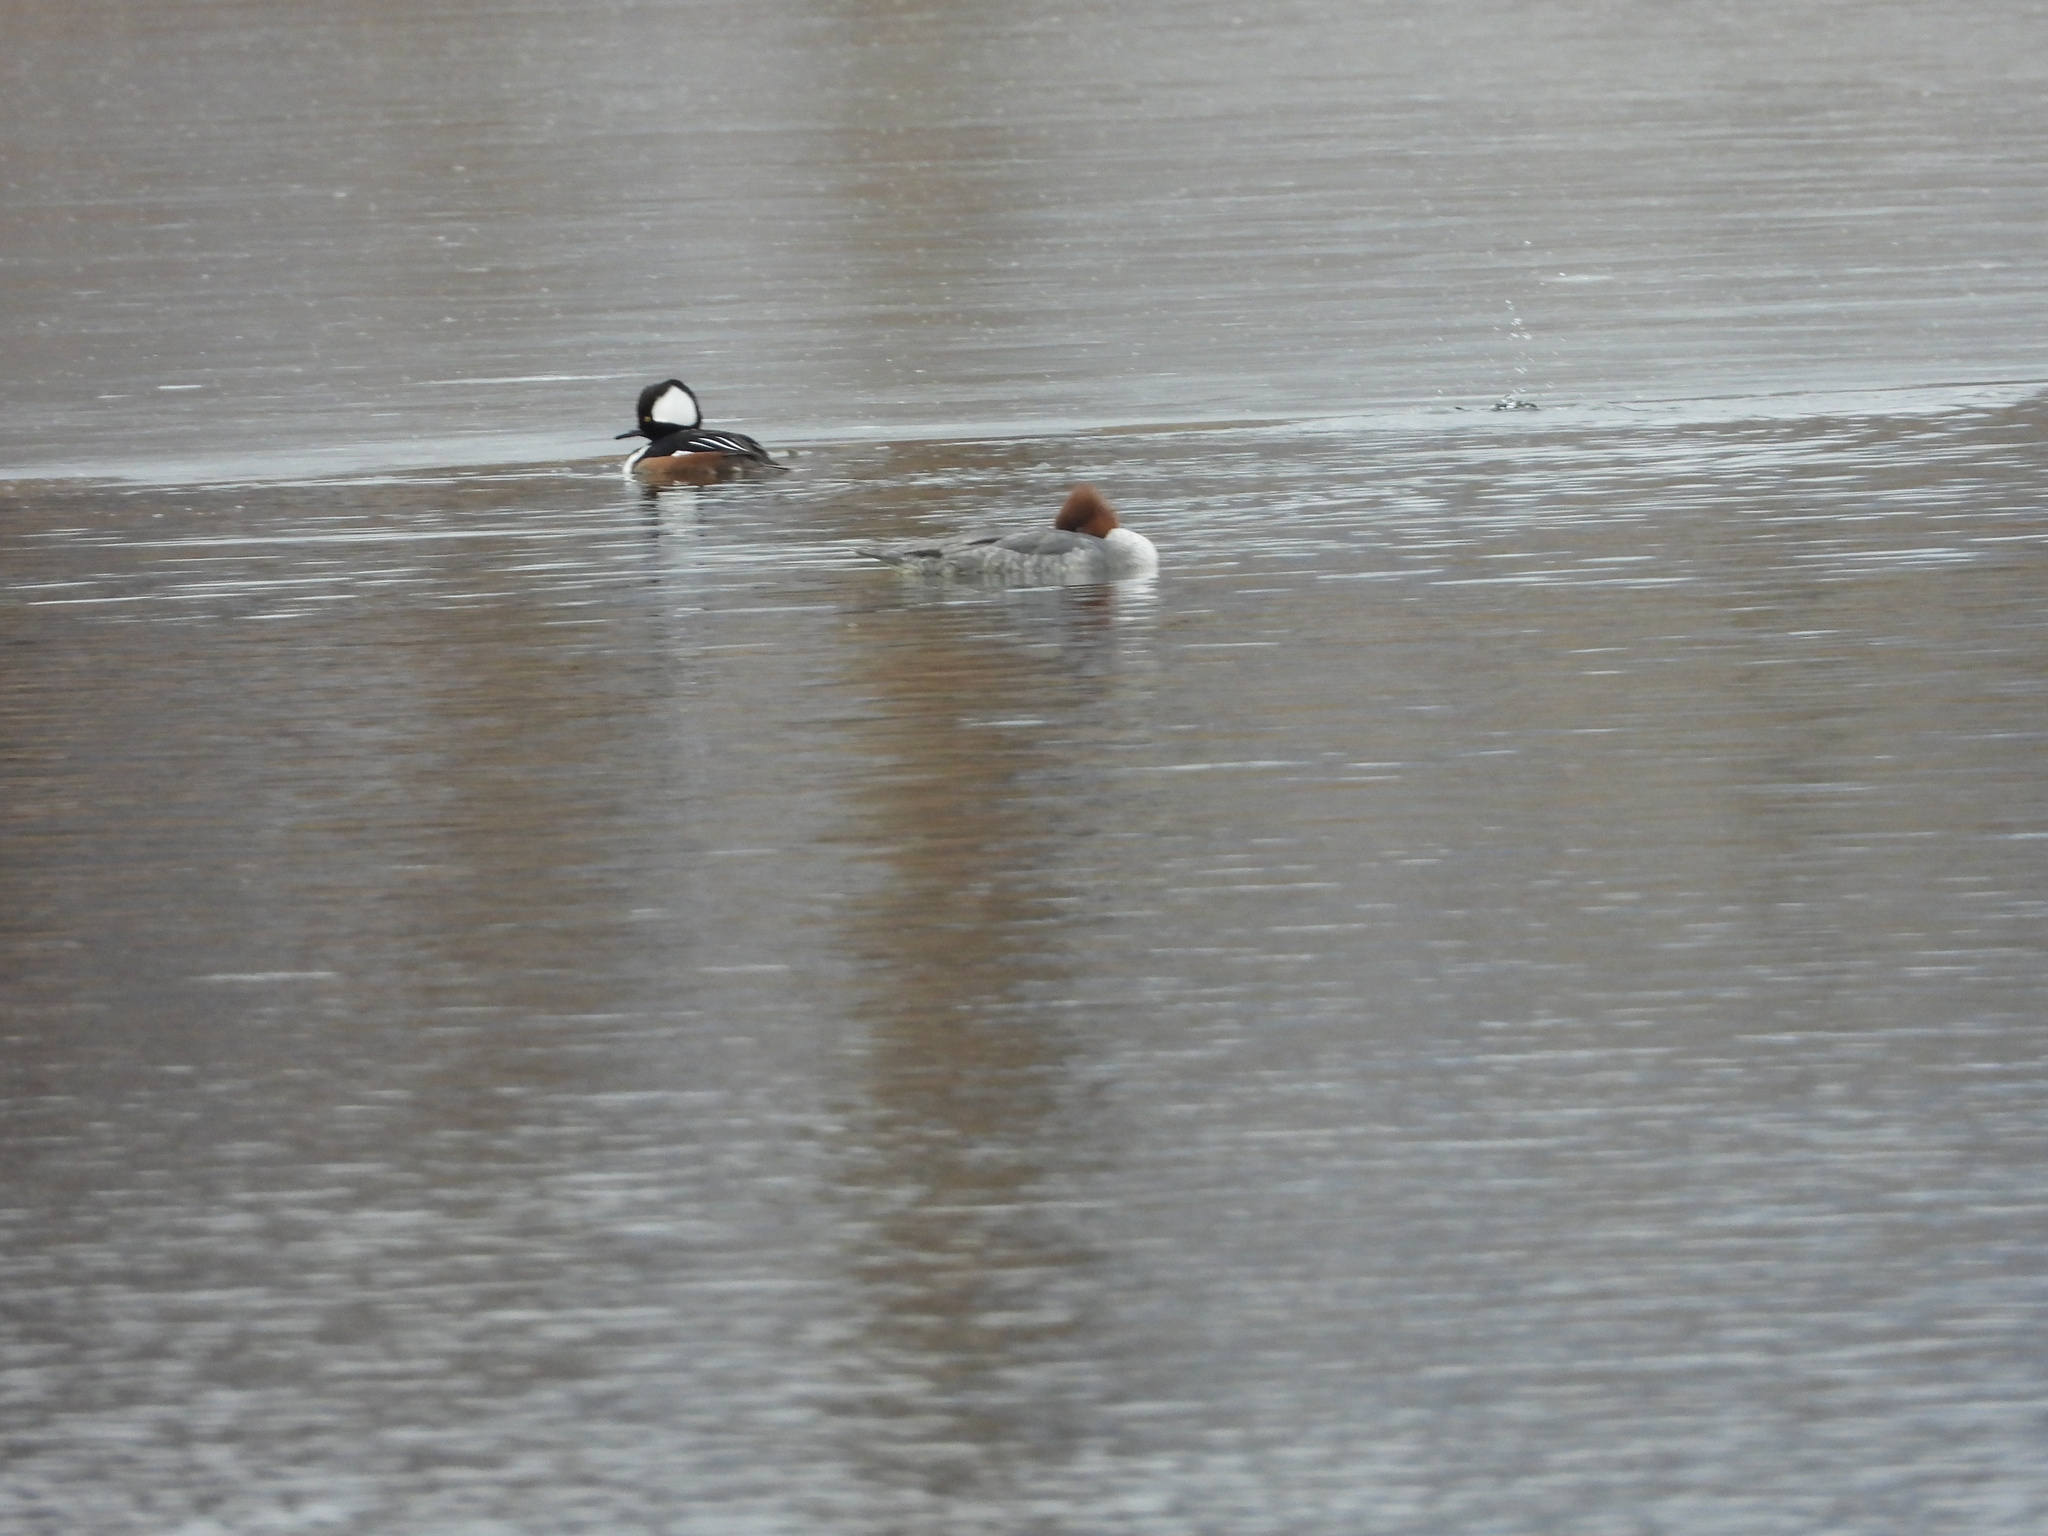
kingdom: Animalia
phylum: Chordata
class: Aves
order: Anseriformes
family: Anatidae
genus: Mergus
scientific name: Mergus merganser
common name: Common merganser
